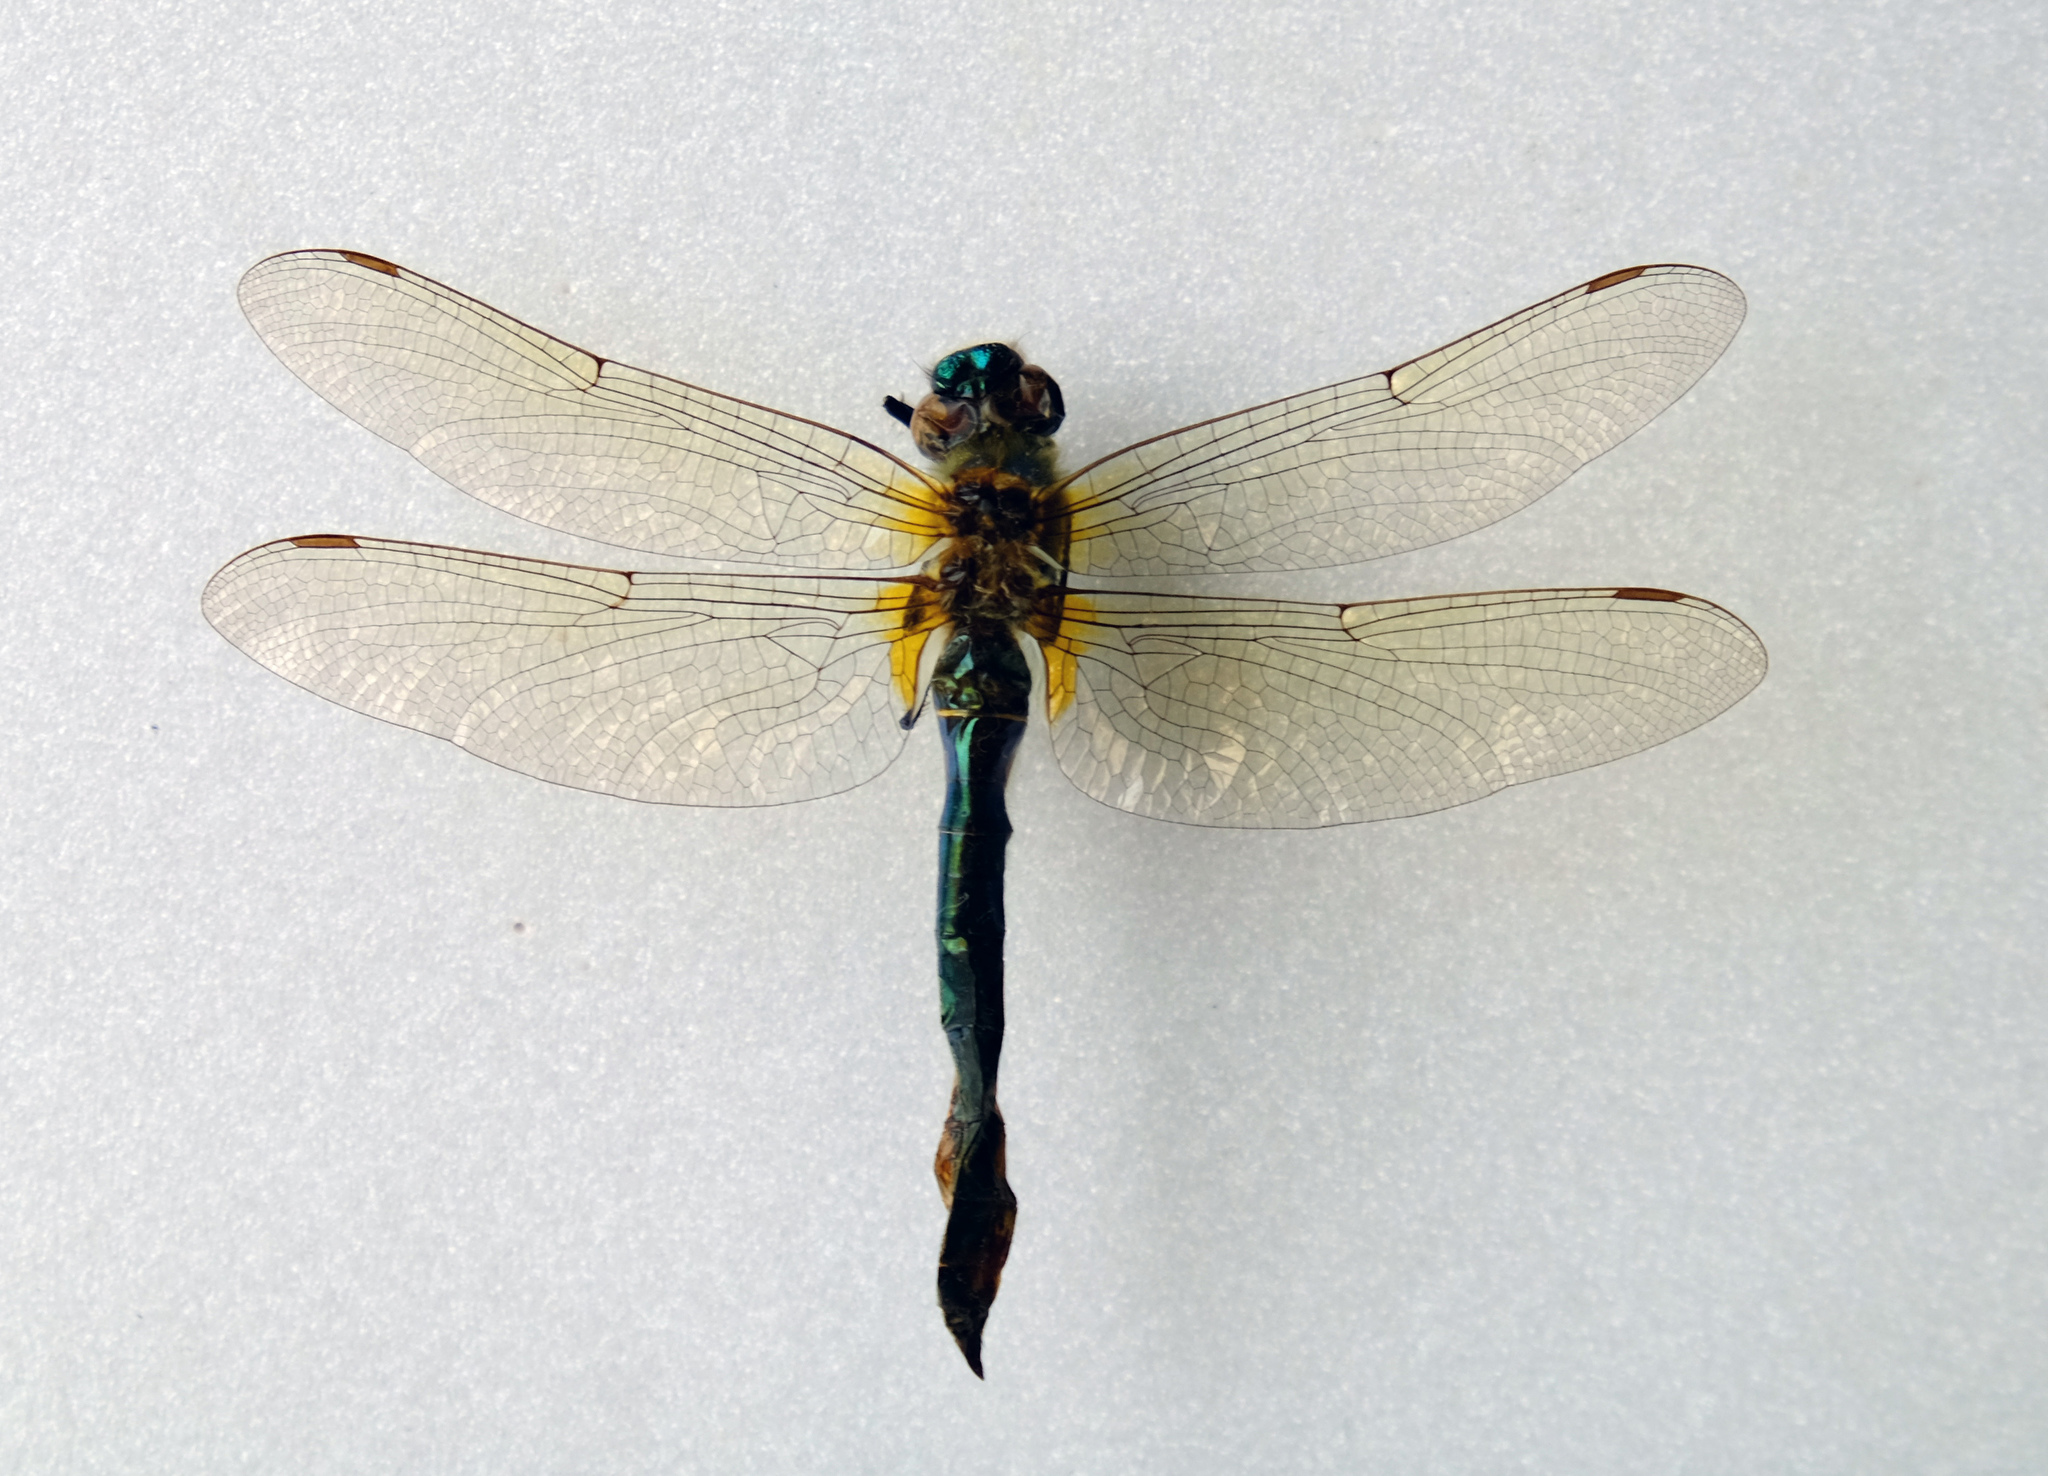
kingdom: Animalia
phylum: Arthropoda
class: Insecta
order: Odonata
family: Corduliidae
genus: Cordulia
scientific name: Cordulia aenea
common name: Downy emerald
